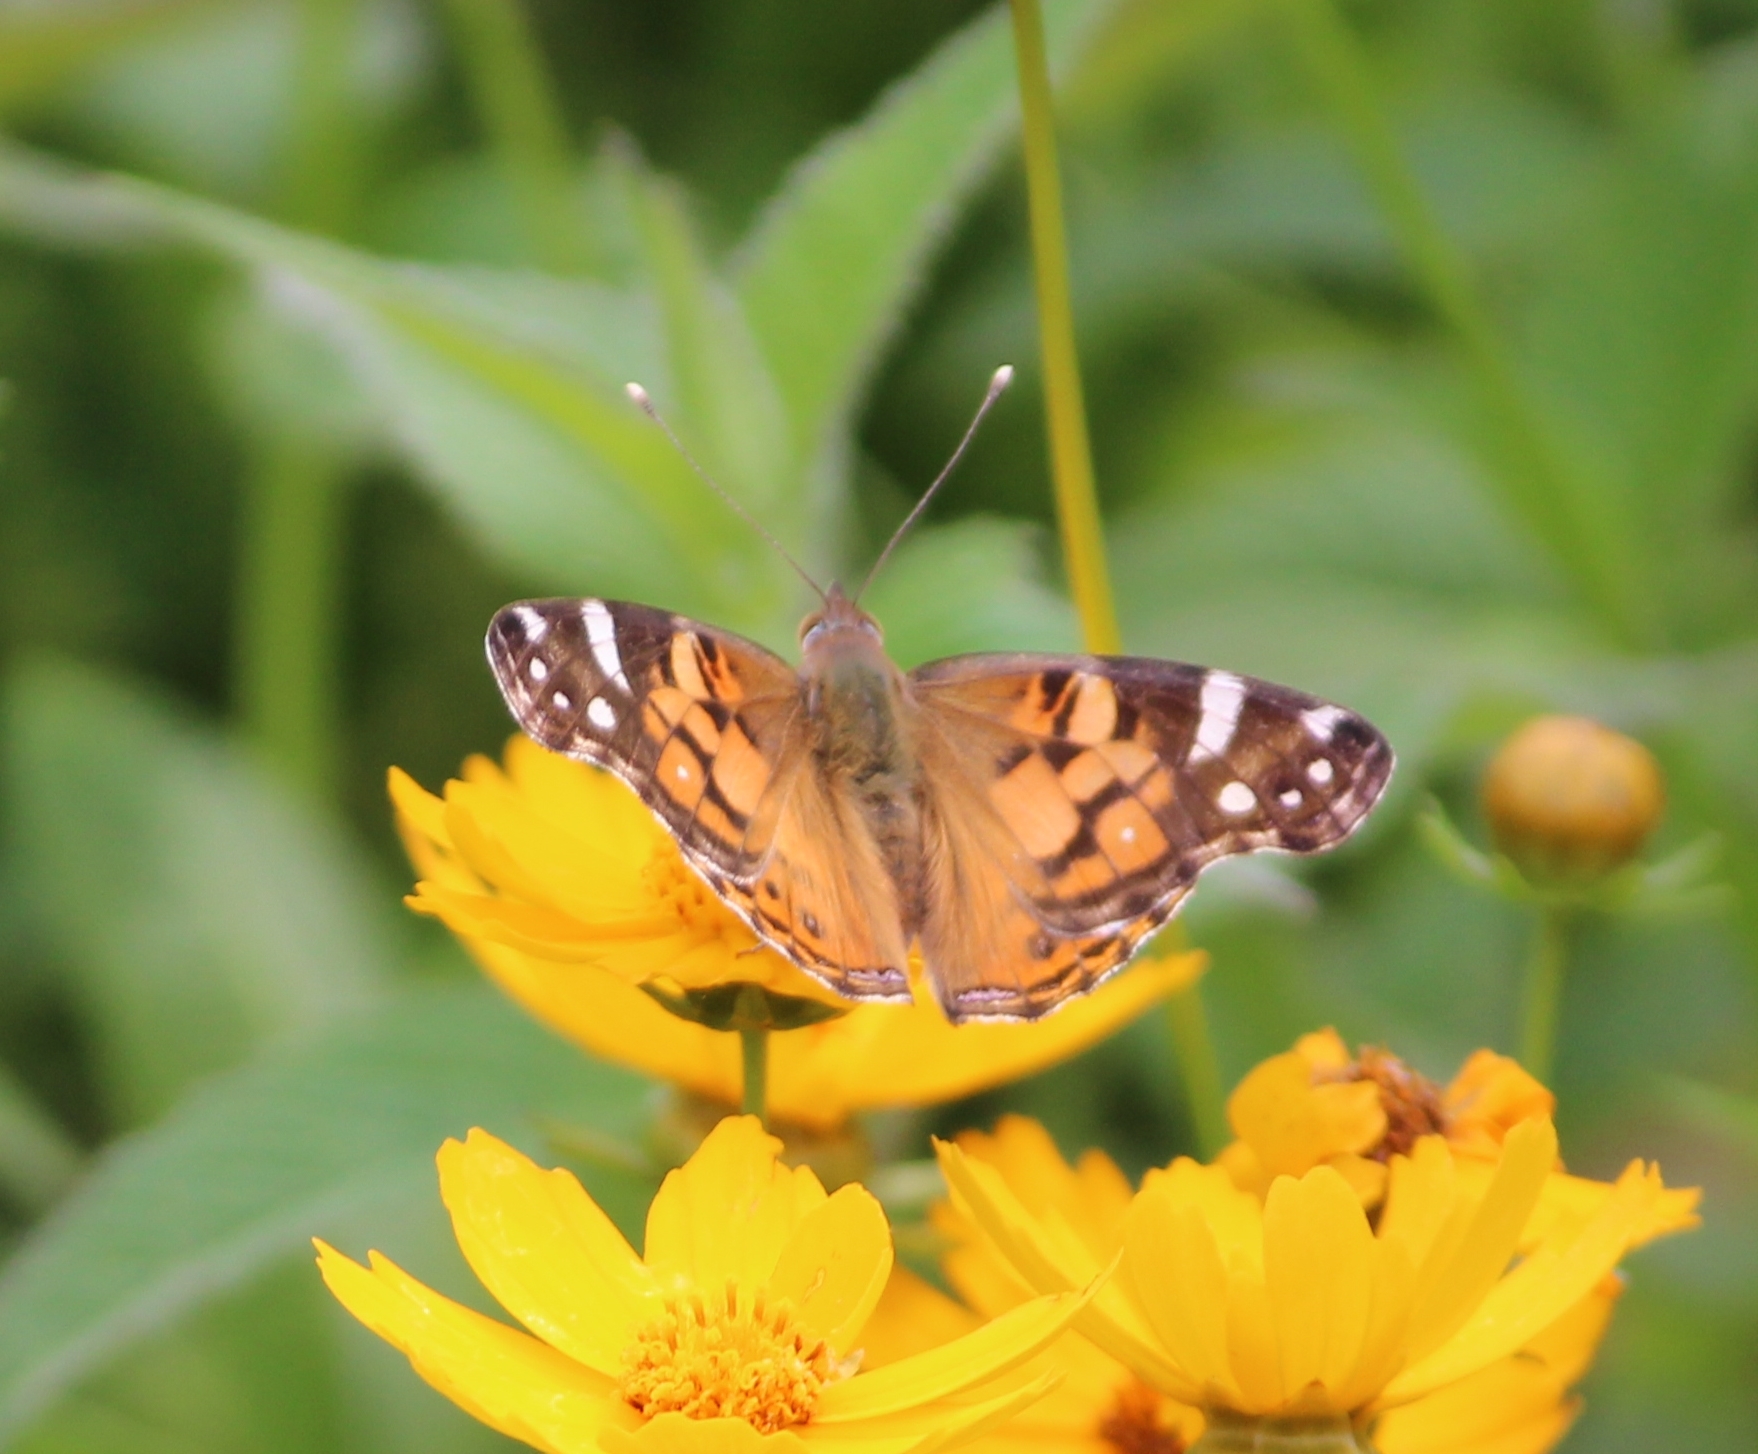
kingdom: Animalia
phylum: Arthropoda
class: Insecta
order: Lepidoptera
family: Nymphalidae
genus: Vanessa
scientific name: Vanessa virginiensis
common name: American lady
